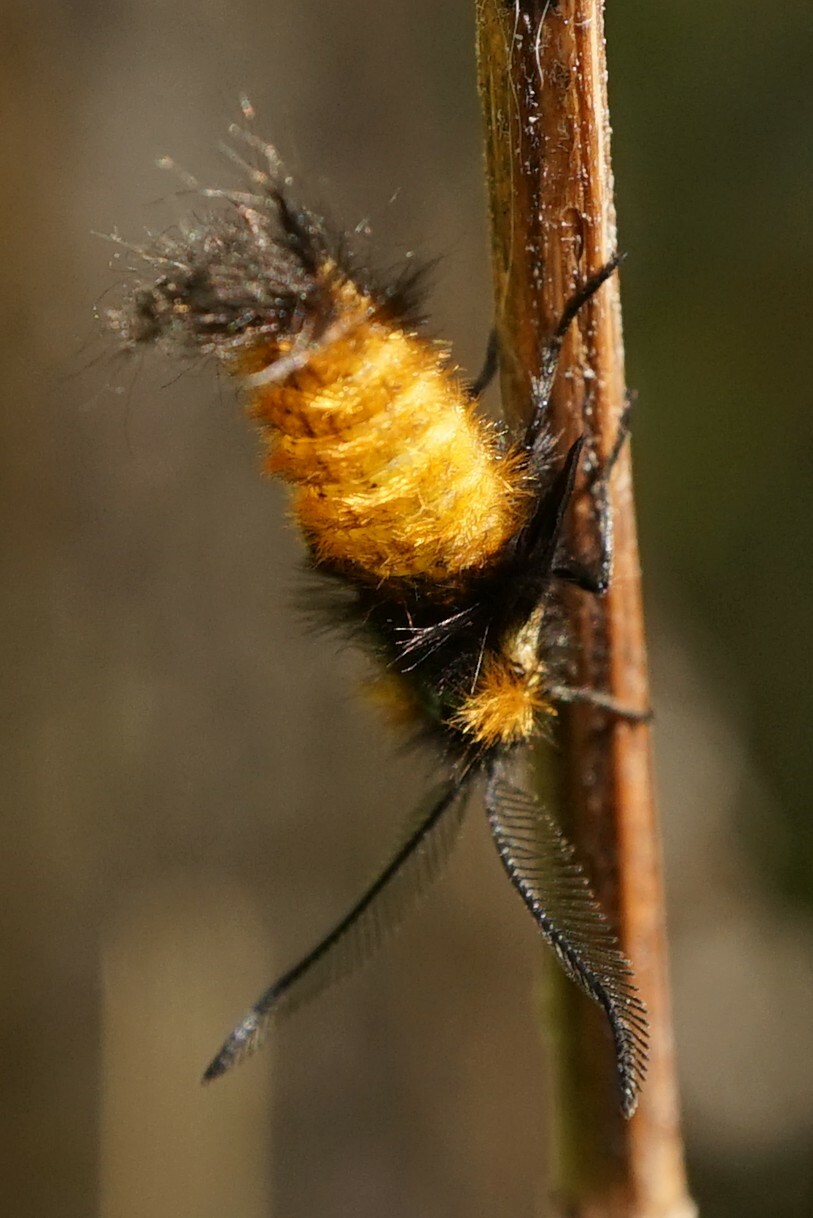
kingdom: Animalia
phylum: Arthropoda
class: Insecta
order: Lepidoptera
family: Zygaenidae
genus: Sinica
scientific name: Sinica sinica
